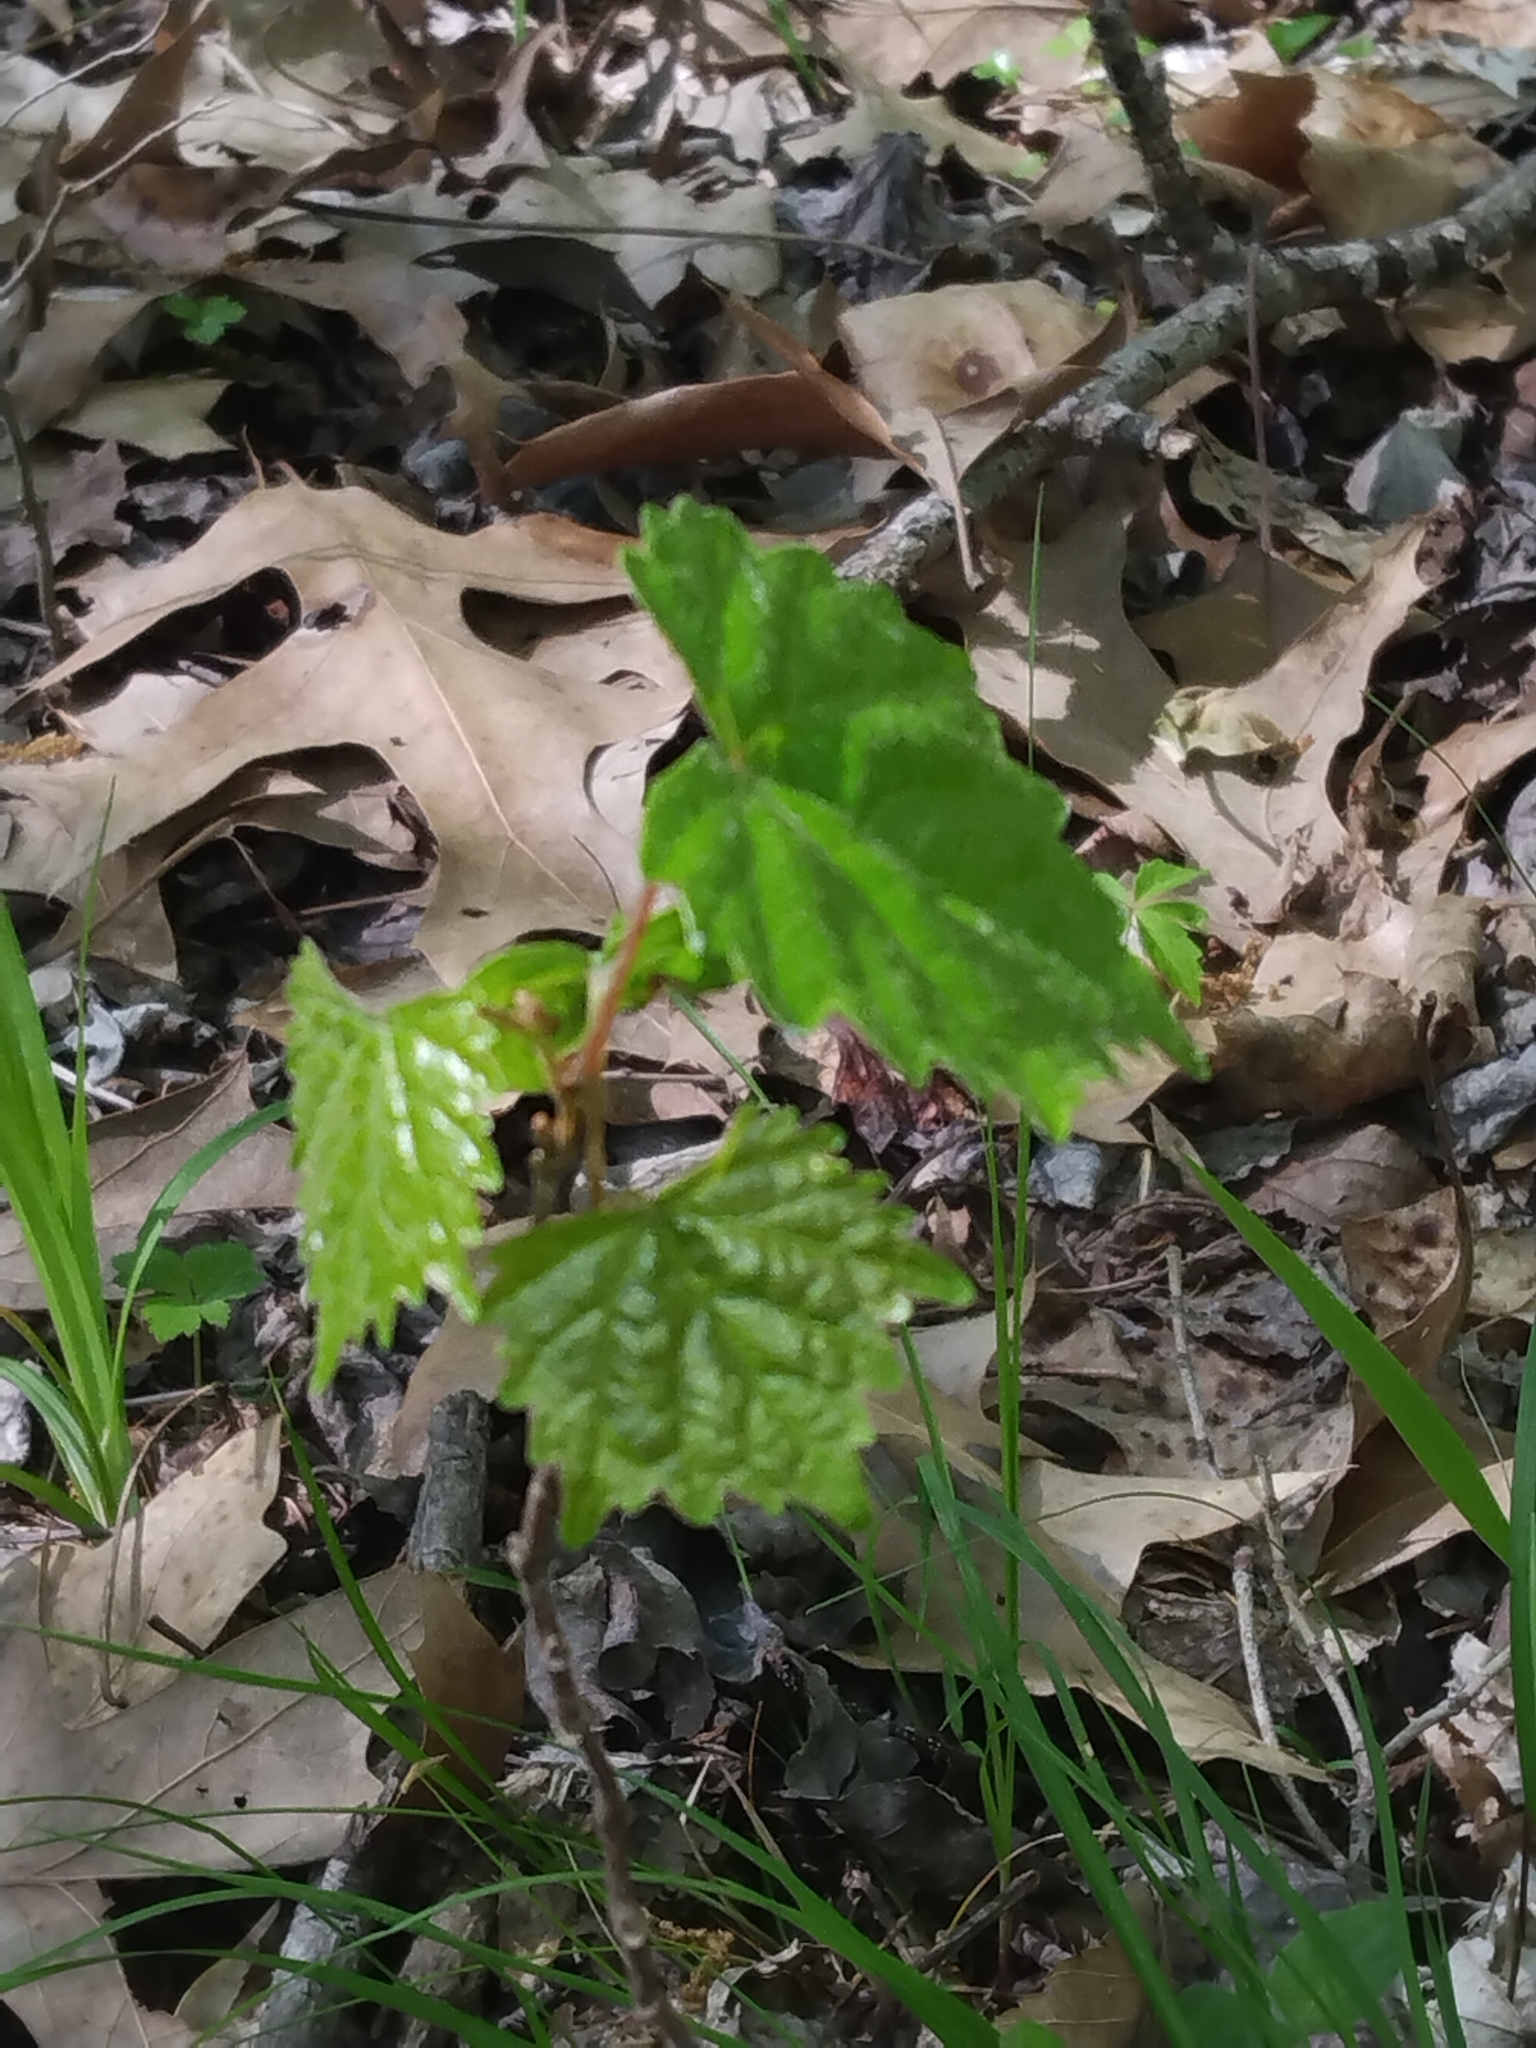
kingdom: Plantae
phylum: Tracheophyta
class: Magnoliopsida
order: Vitales
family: Vitaceae
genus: Vitis
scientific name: Vitis rotundifolia
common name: Muscadine grape
